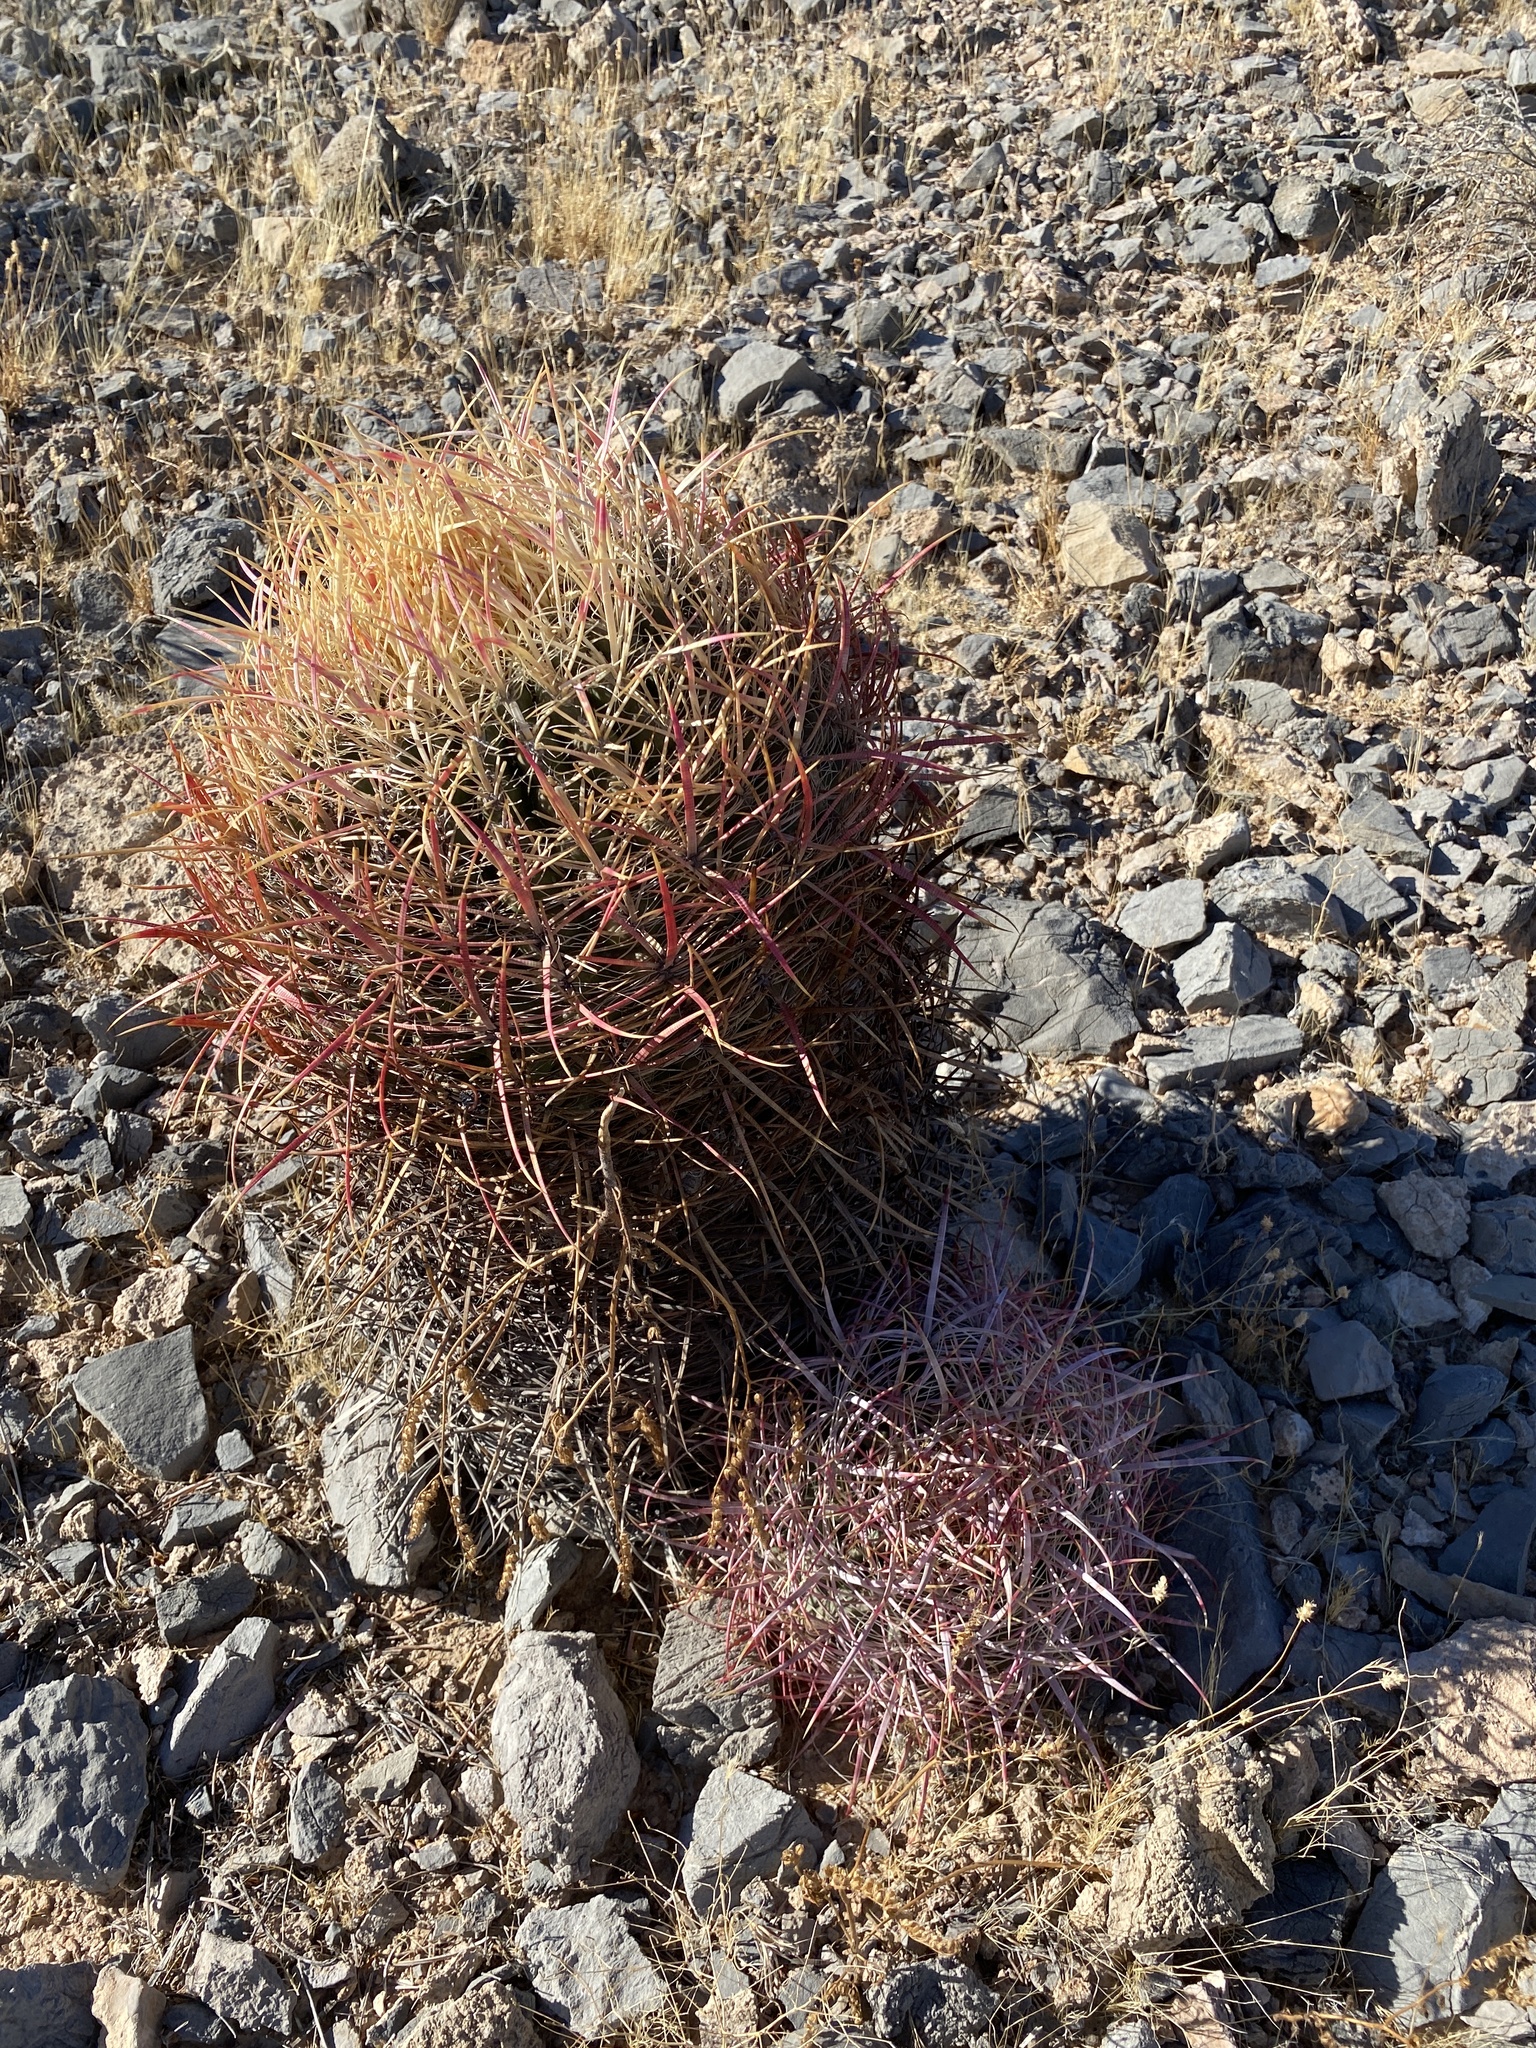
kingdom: Plantae
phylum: Tracheophyta
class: Magnoliopsida
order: Caryophyllales
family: Cactaceae
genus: Ferocactus
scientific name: Ferocactus cylindraceus
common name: California barrel cactus
